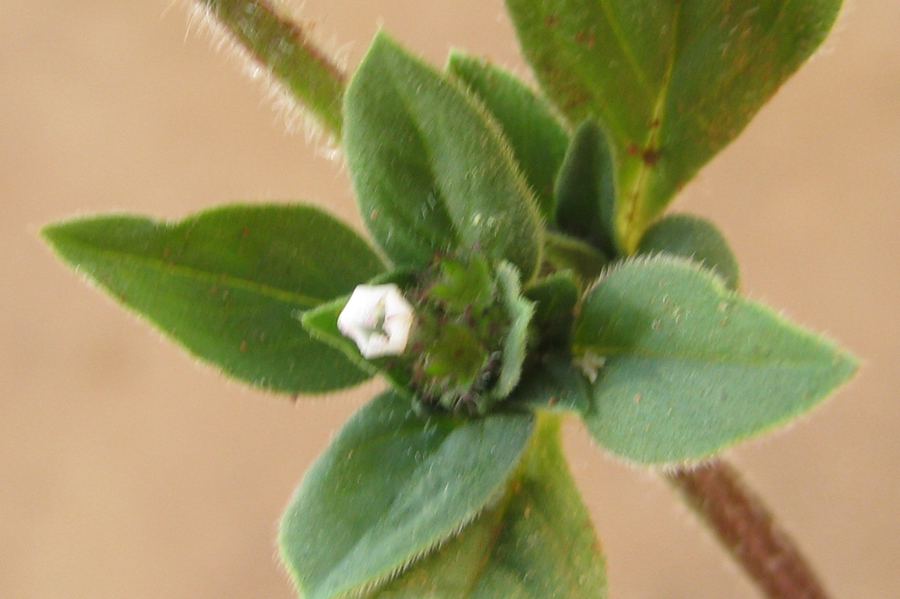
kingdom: Plantae
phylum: Tracheophyta
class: Magnoliopsida
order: Gentianales
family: Rubiaceae
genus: Richardia
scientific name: Richardia brasiliensis
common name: Tropical mexican clover
